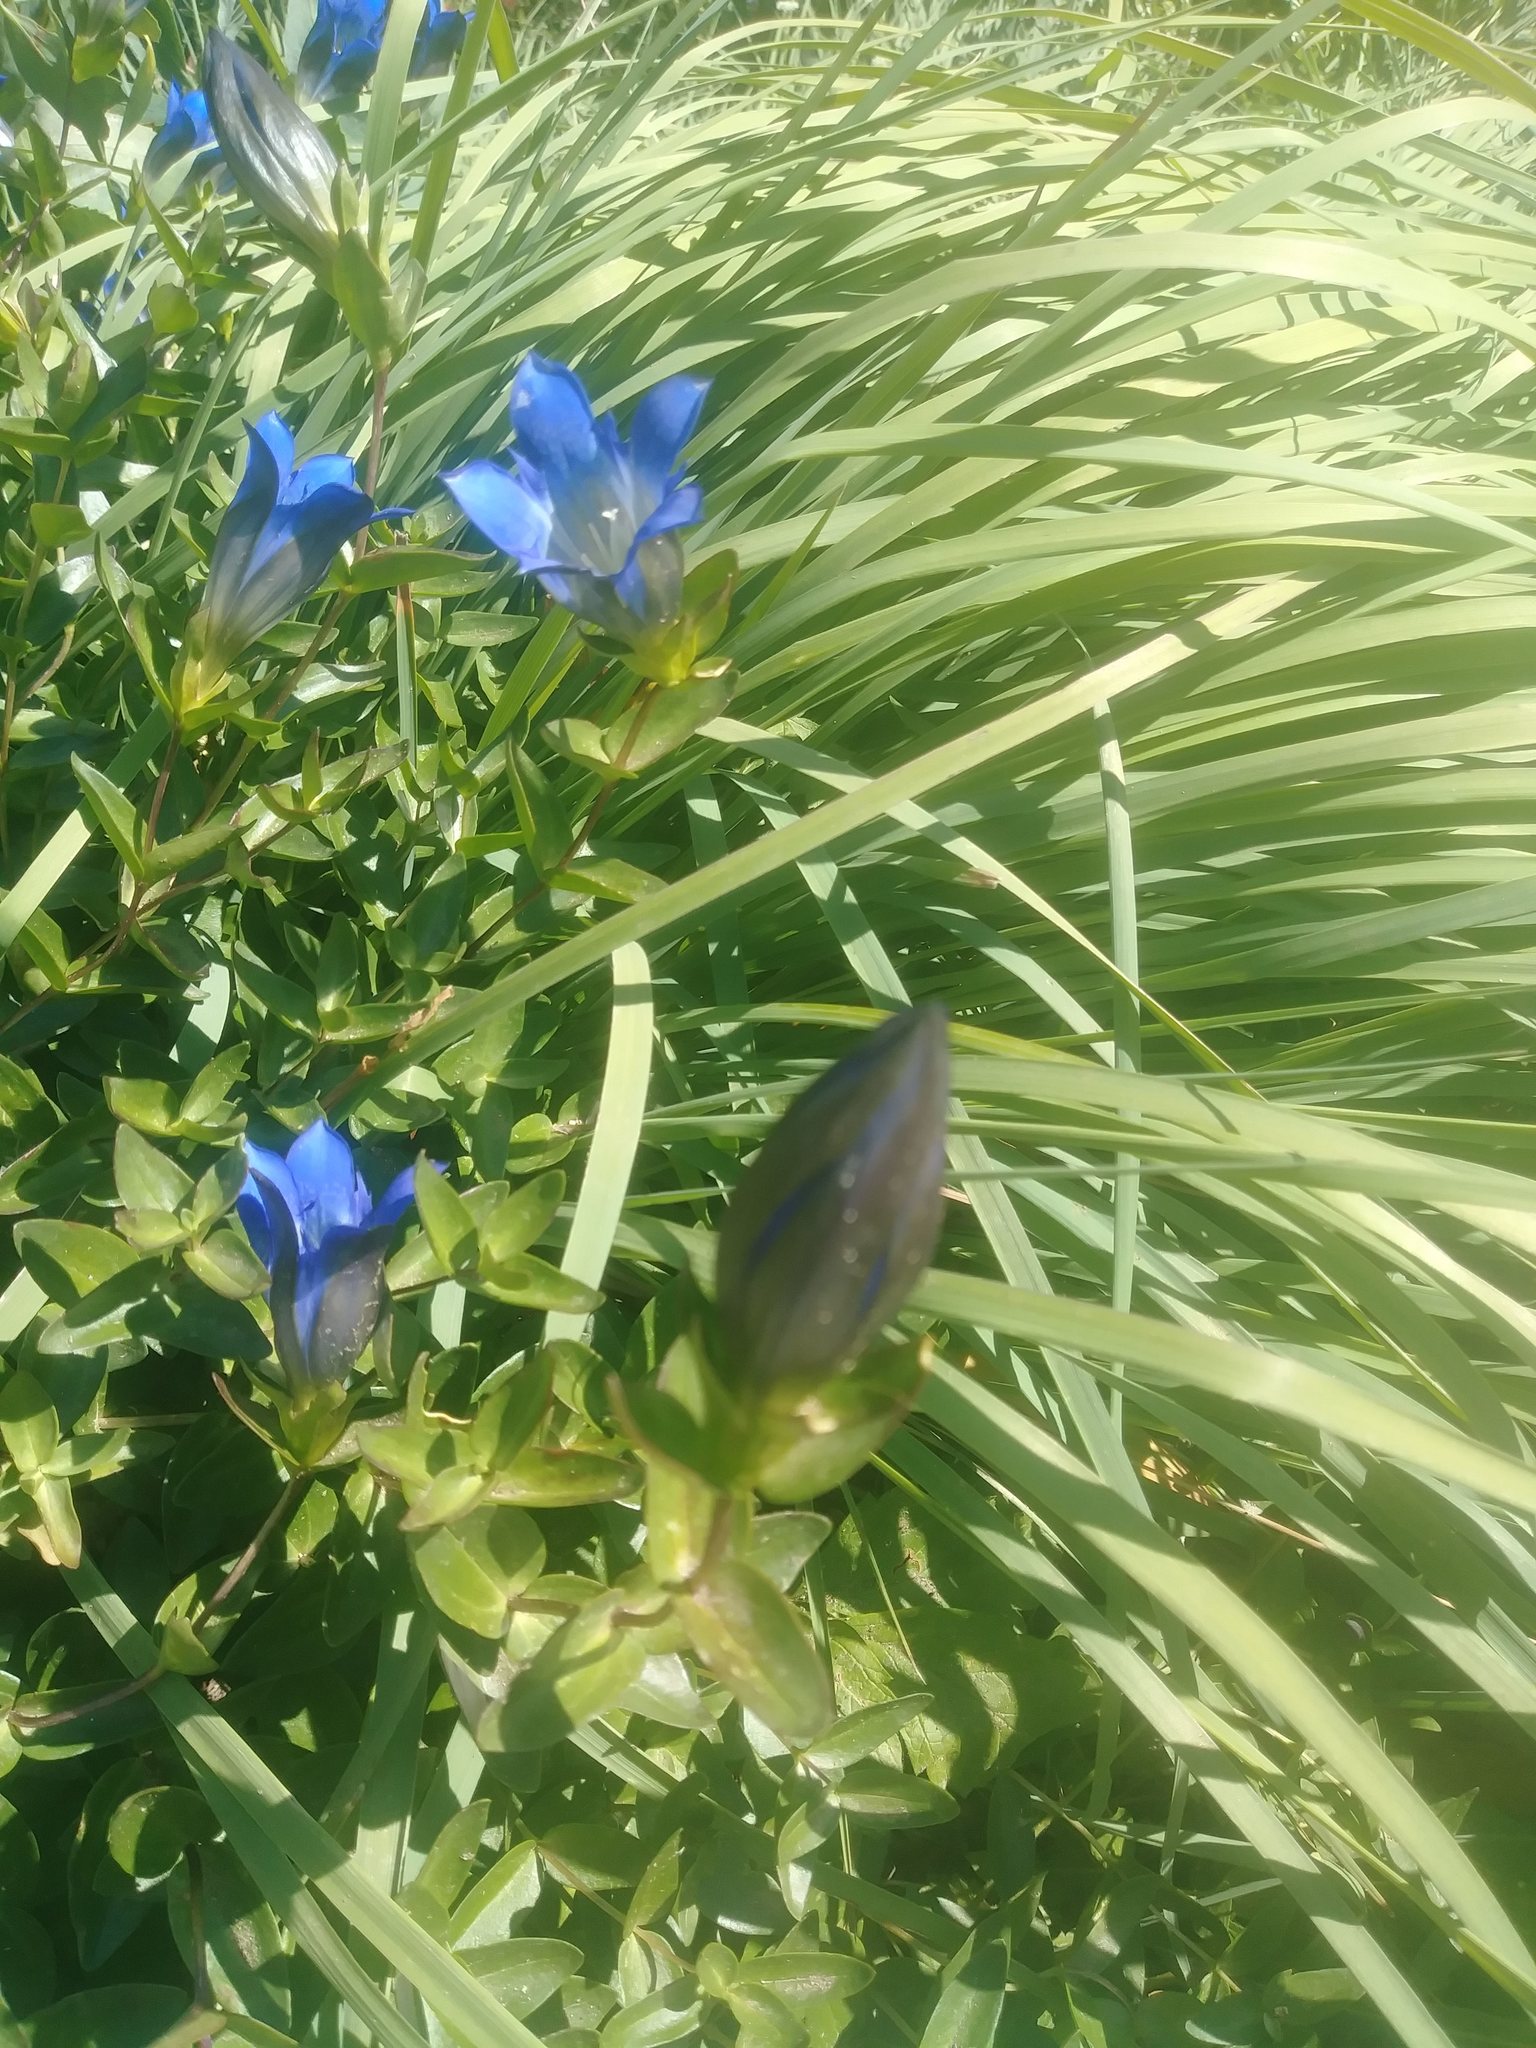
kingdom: Plantae
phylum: Tracheophyta
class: Magnoliopsida
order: Gentianales
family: Gentianaceae
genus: Gentiana
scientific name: Gentiana calycosa
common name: Rainier pleated gentian
